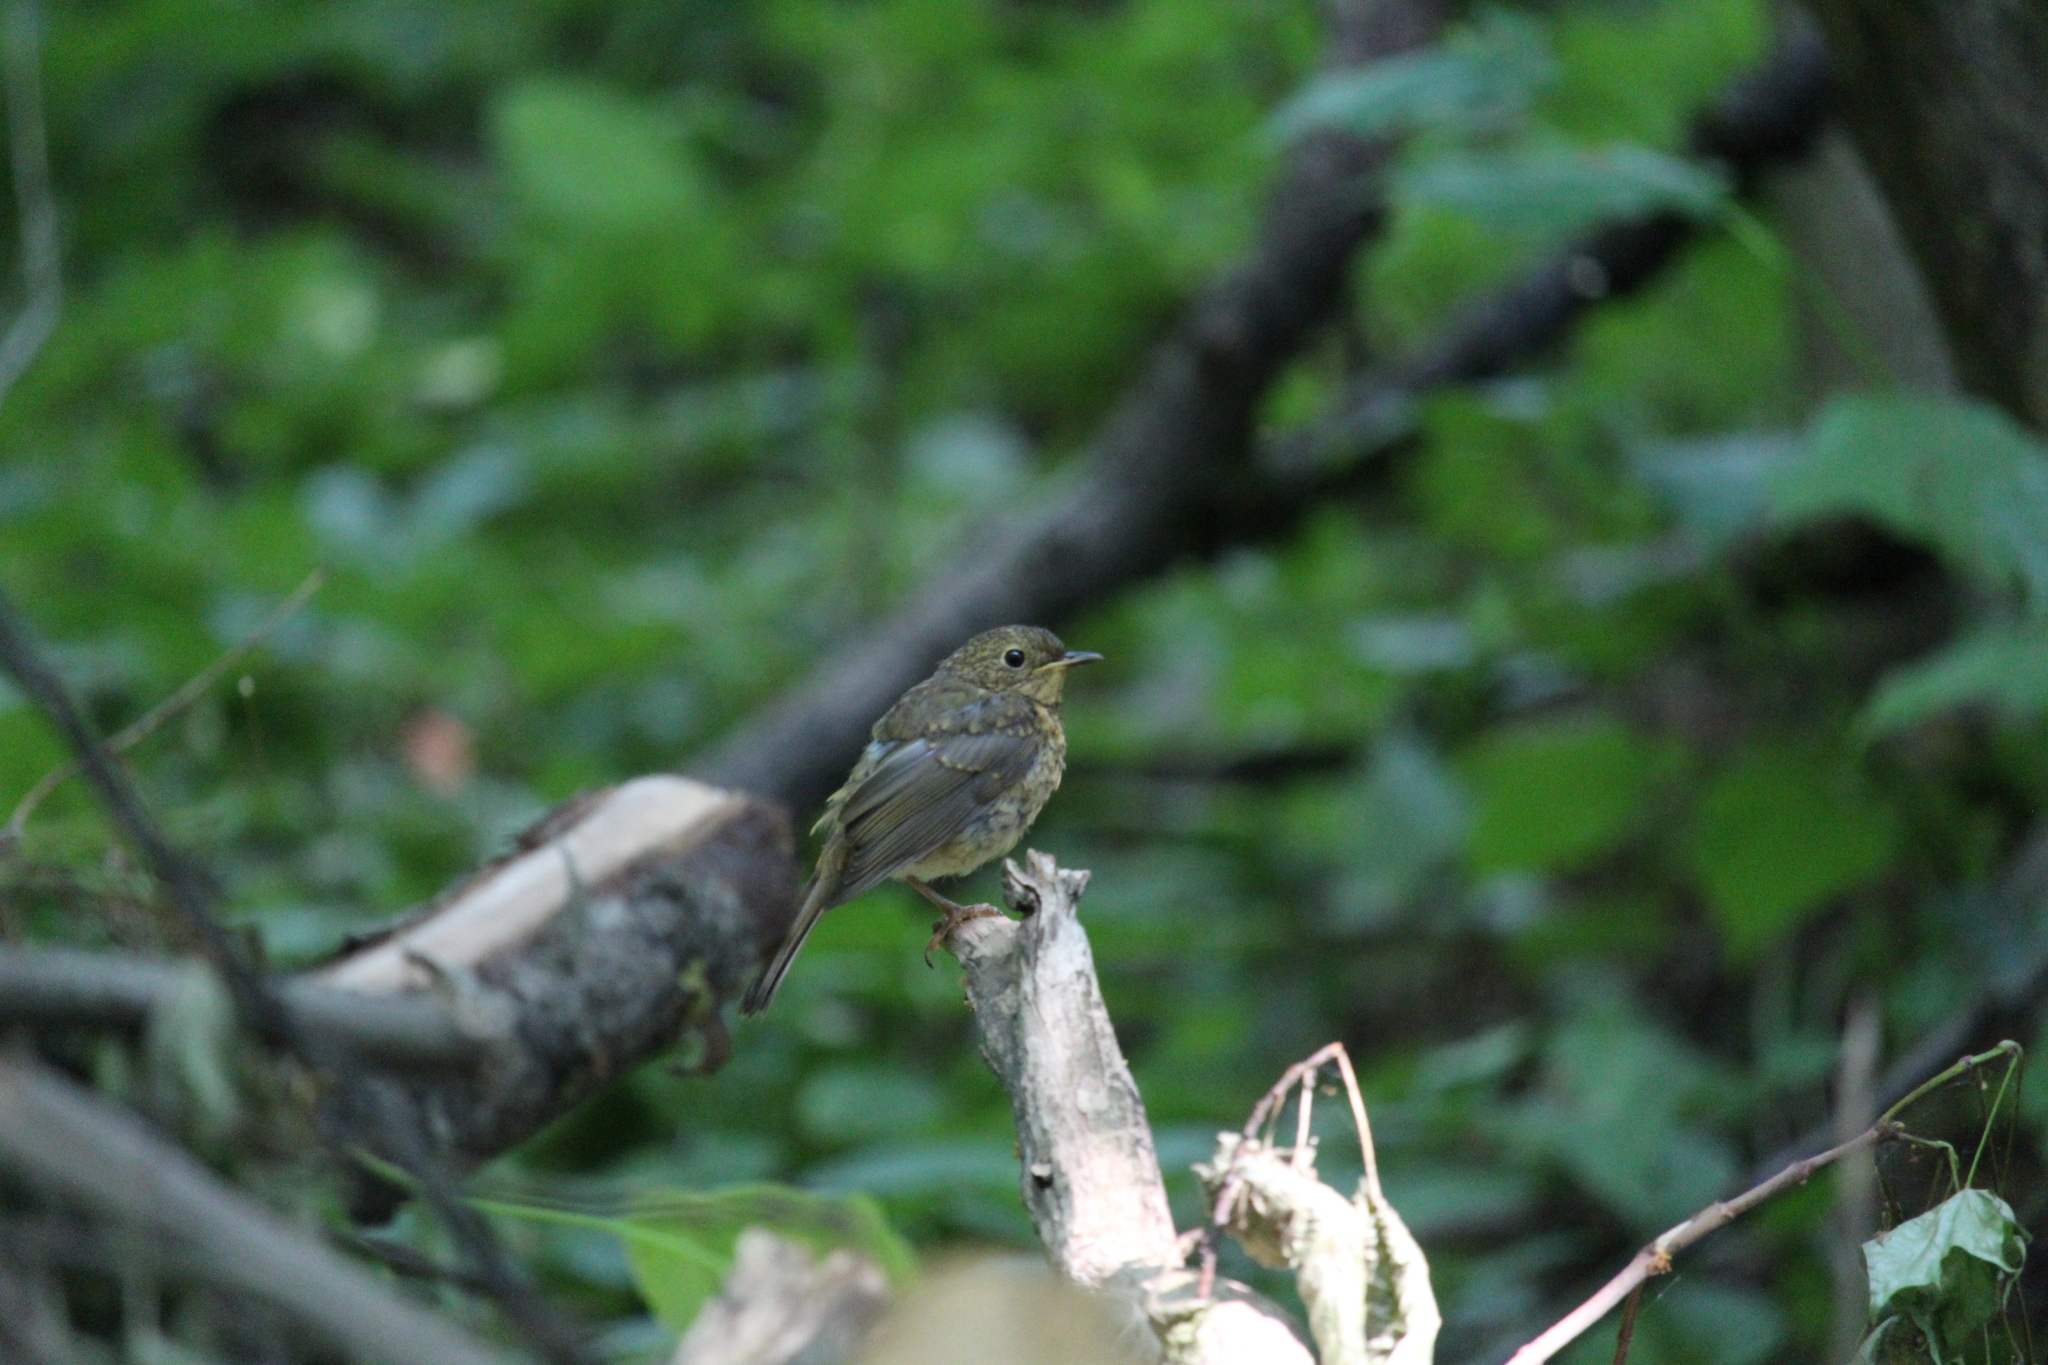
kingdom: Animalia
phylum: Chordata
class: Aves
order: Passeriformes
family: Muscicapidae
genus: Erithacus
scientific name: Erithacus rubecula
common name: European robin
